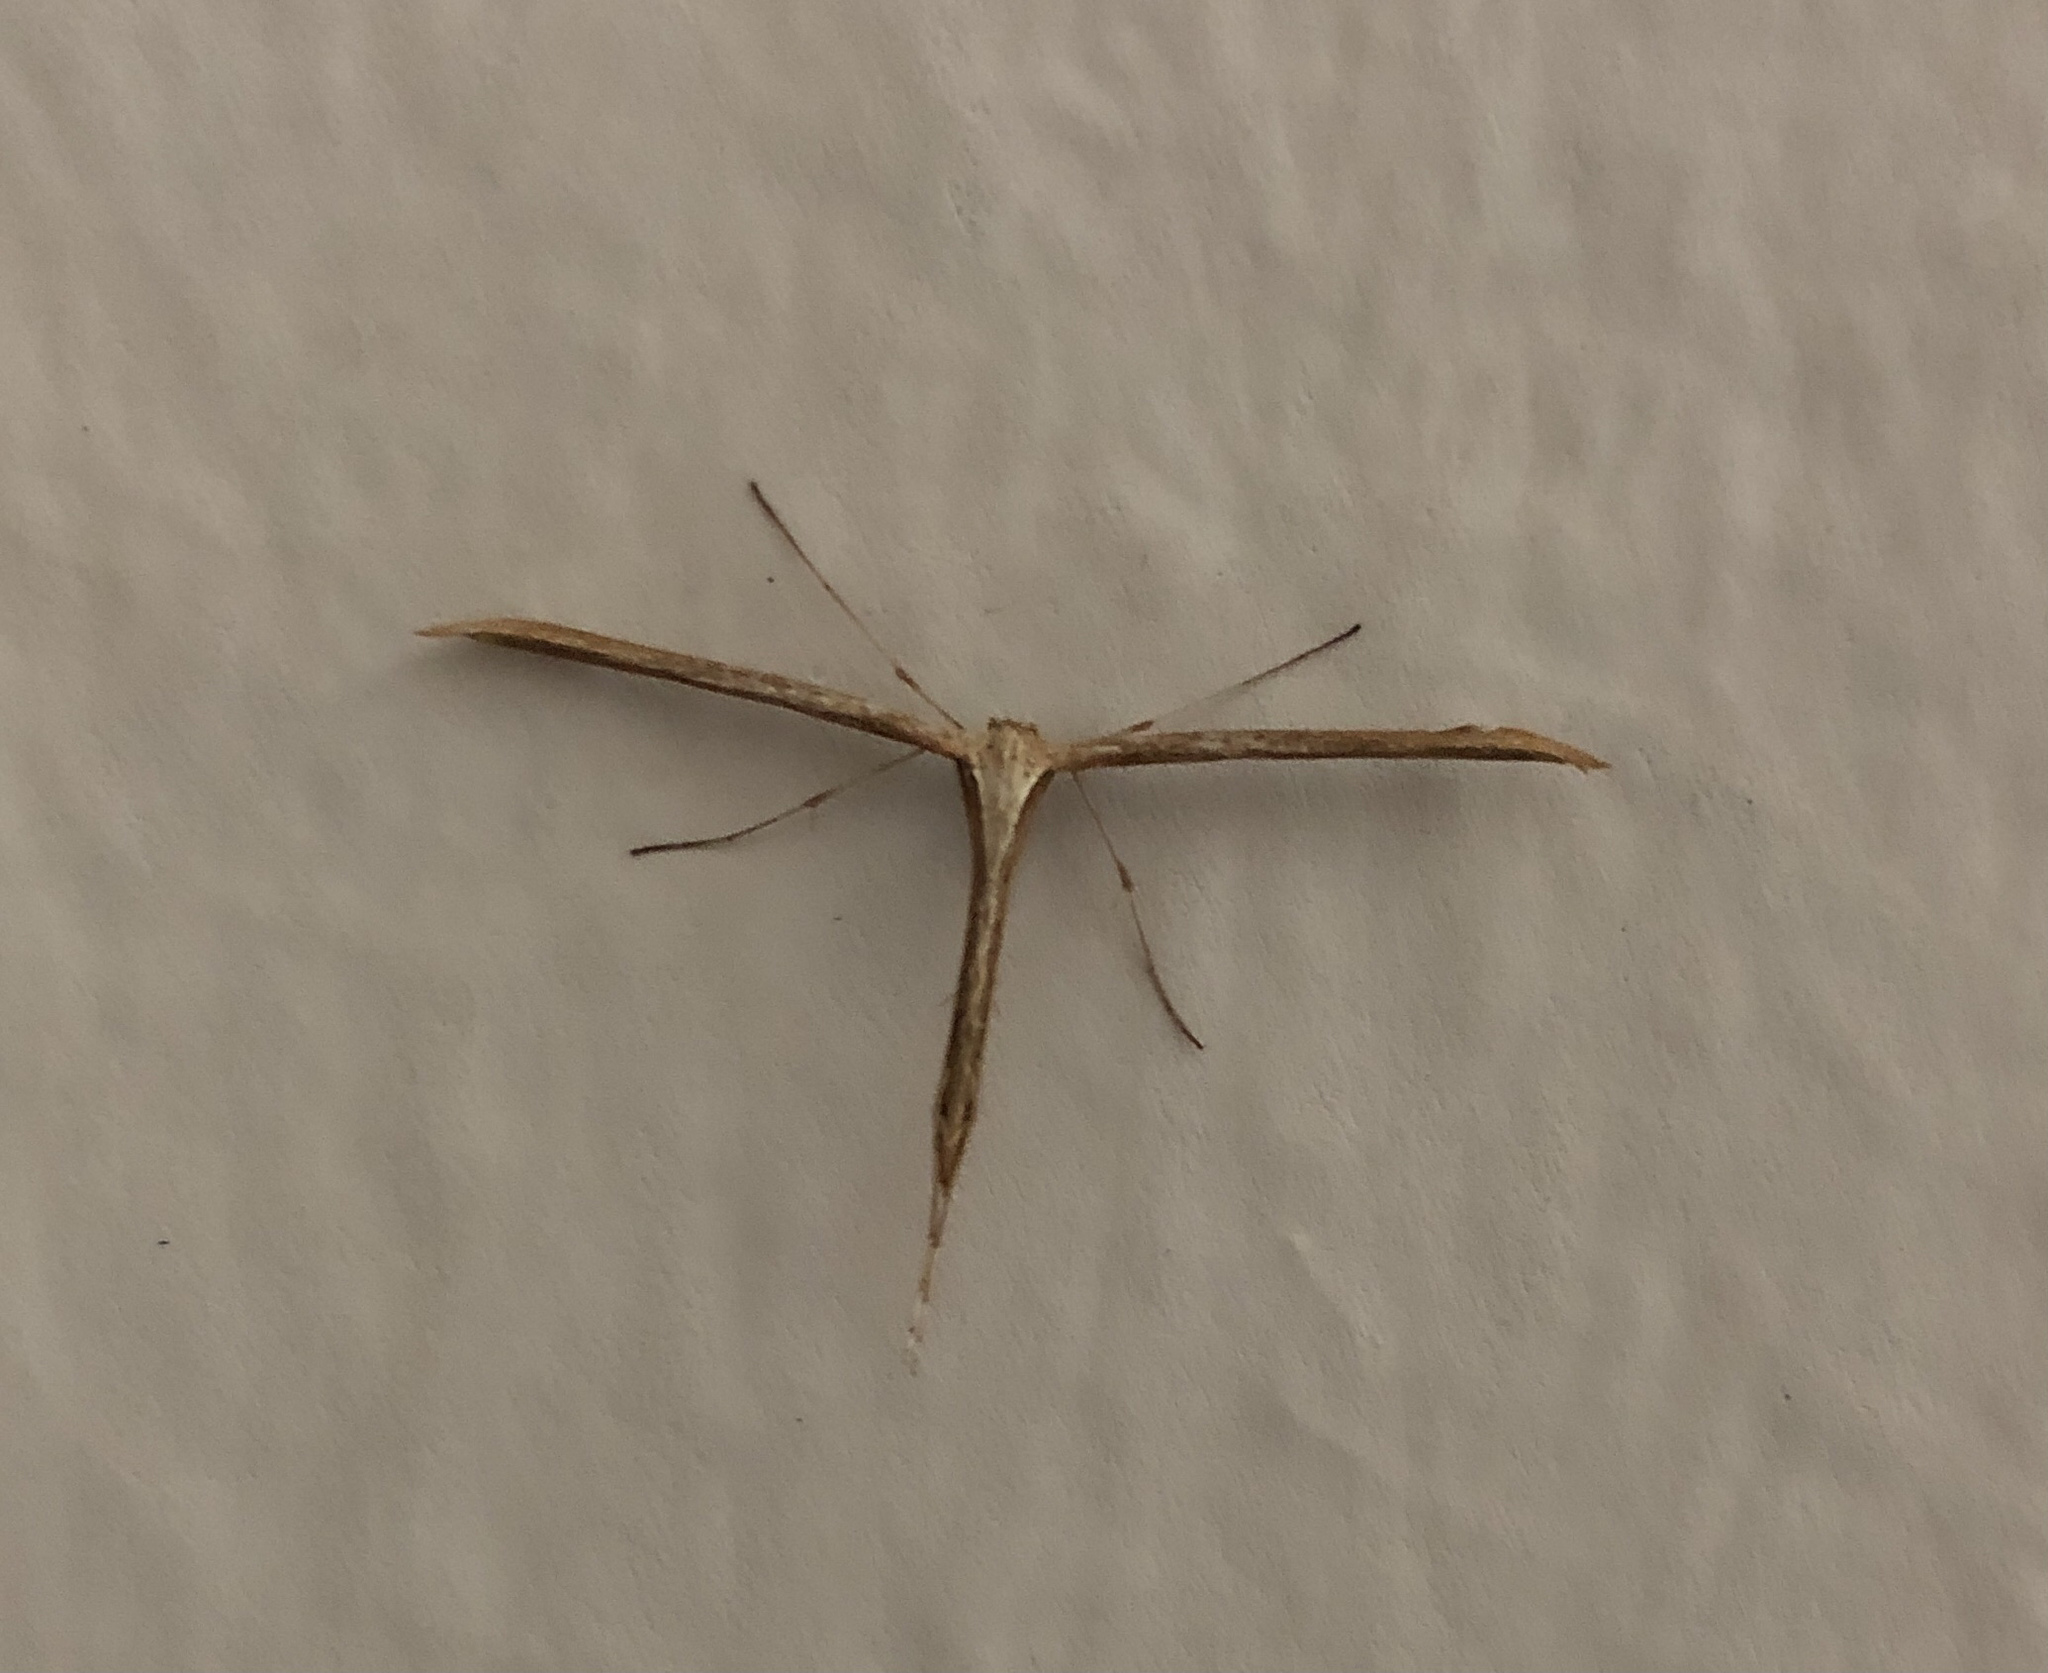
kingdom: Animalia
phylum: Arthropoda
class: Insecta
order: Lepidoptera
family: Pterophoridae
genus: Emmelina
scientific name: Emmelina monodactyla
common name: Common plume
